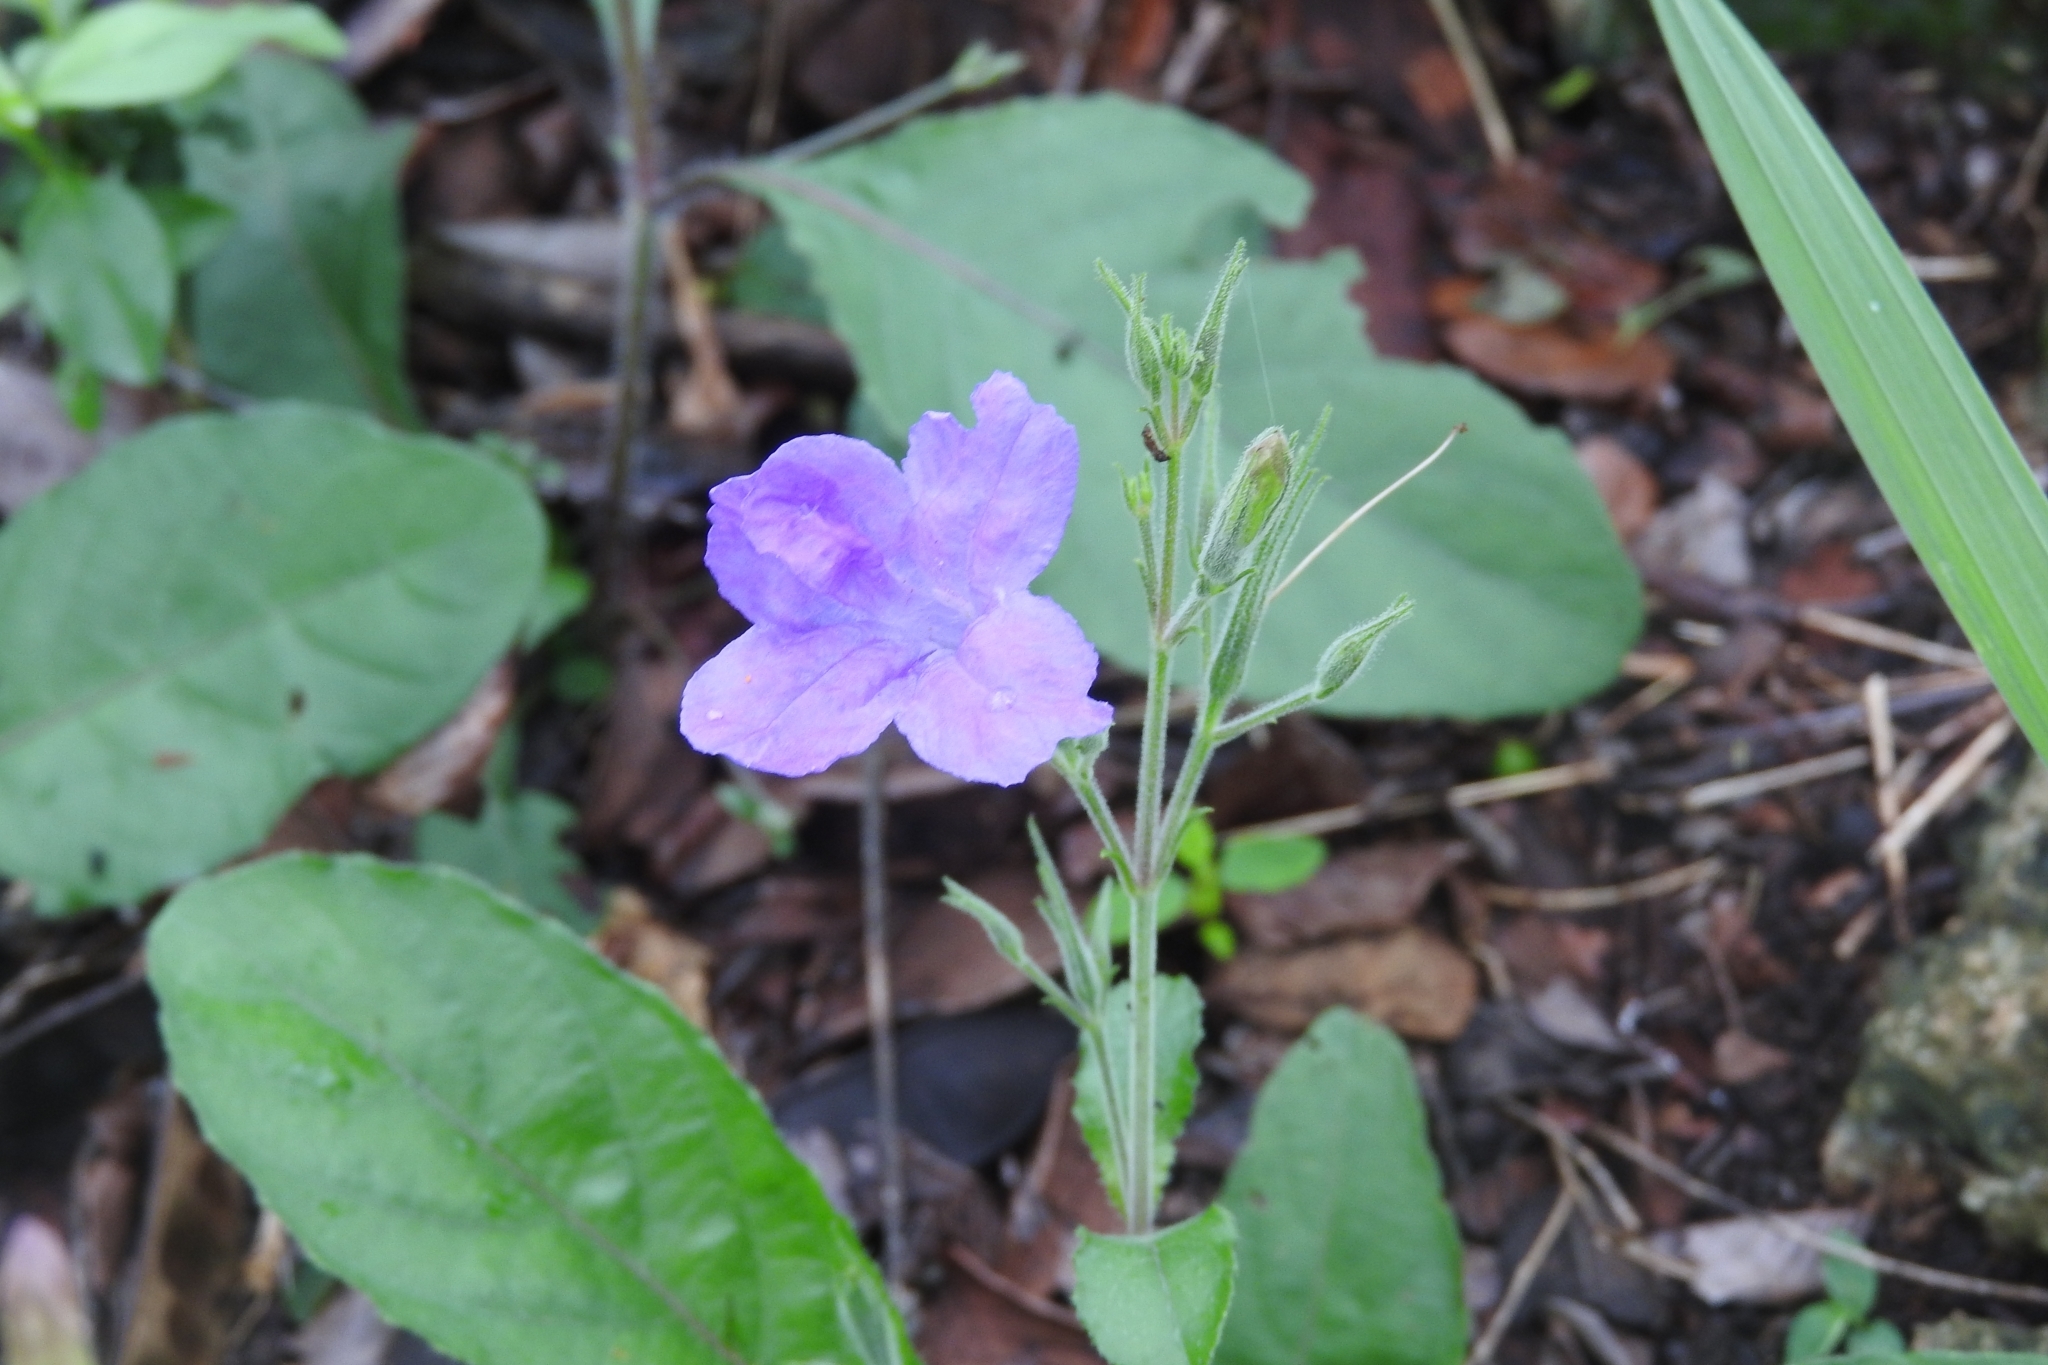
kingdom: Plantae
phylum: Tracheophyta
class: Magnoliopsida
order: Lamiales
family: Acanthaceae
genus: Ruellia
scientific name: Ruellia ciliatiflora
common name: Hairyflower wild petunia
